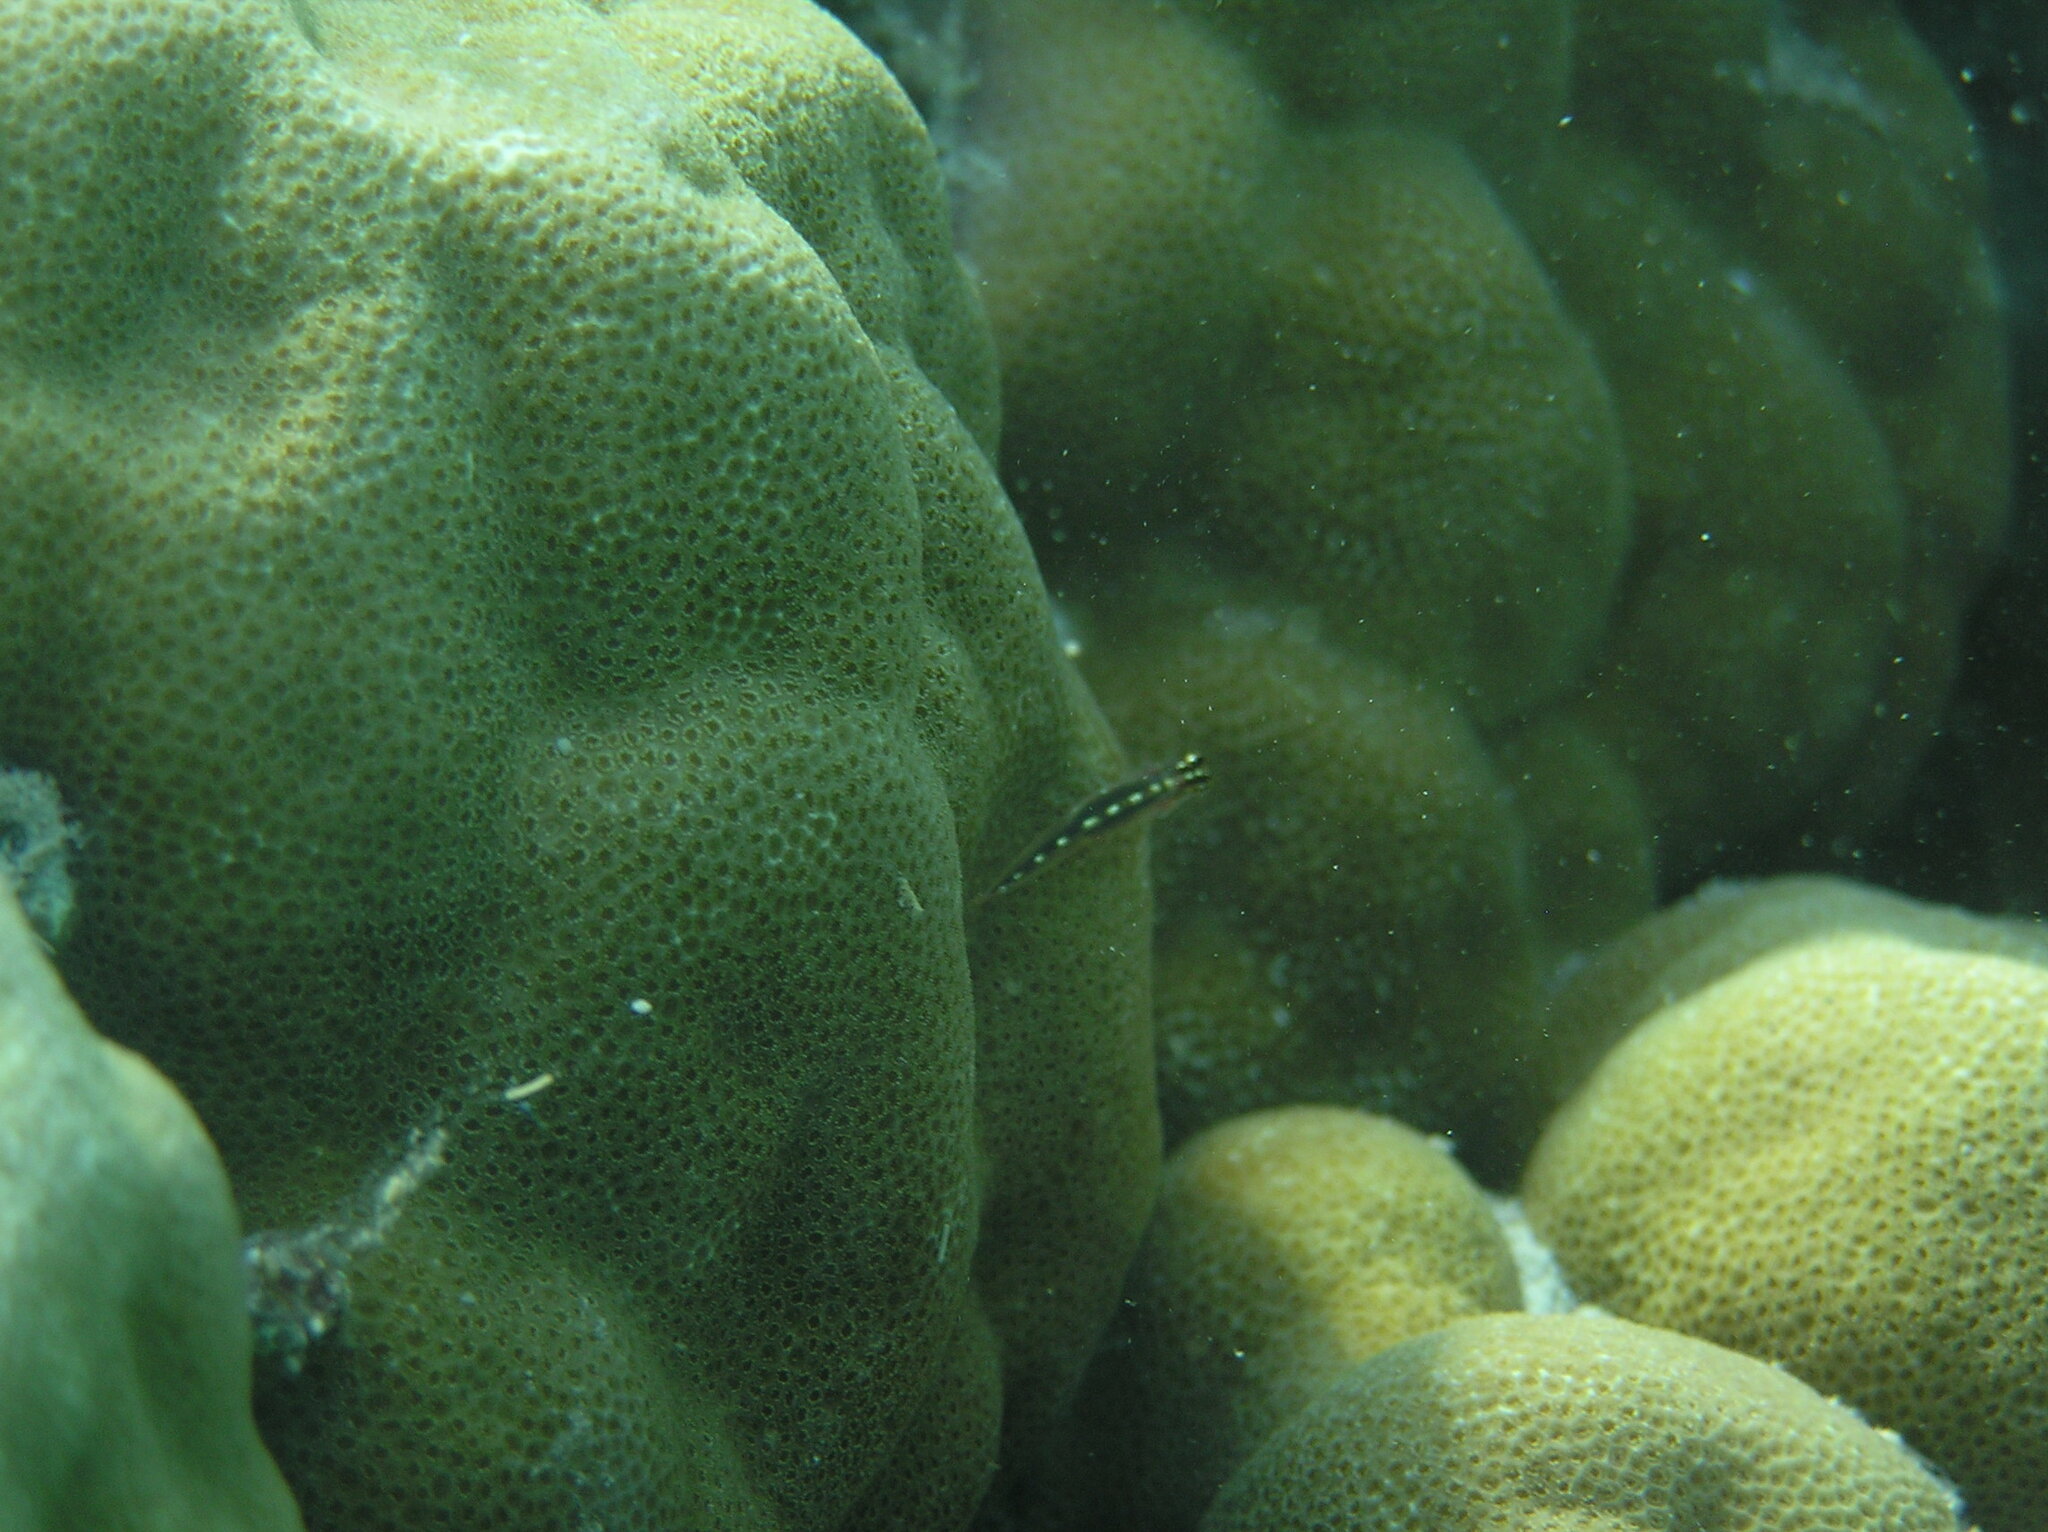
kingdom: Animalia
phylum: Chordata
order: Perciformes
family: Gobiidae
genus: Eviota
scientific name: Eviota sebreei
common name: Sebree's pygmy goby
